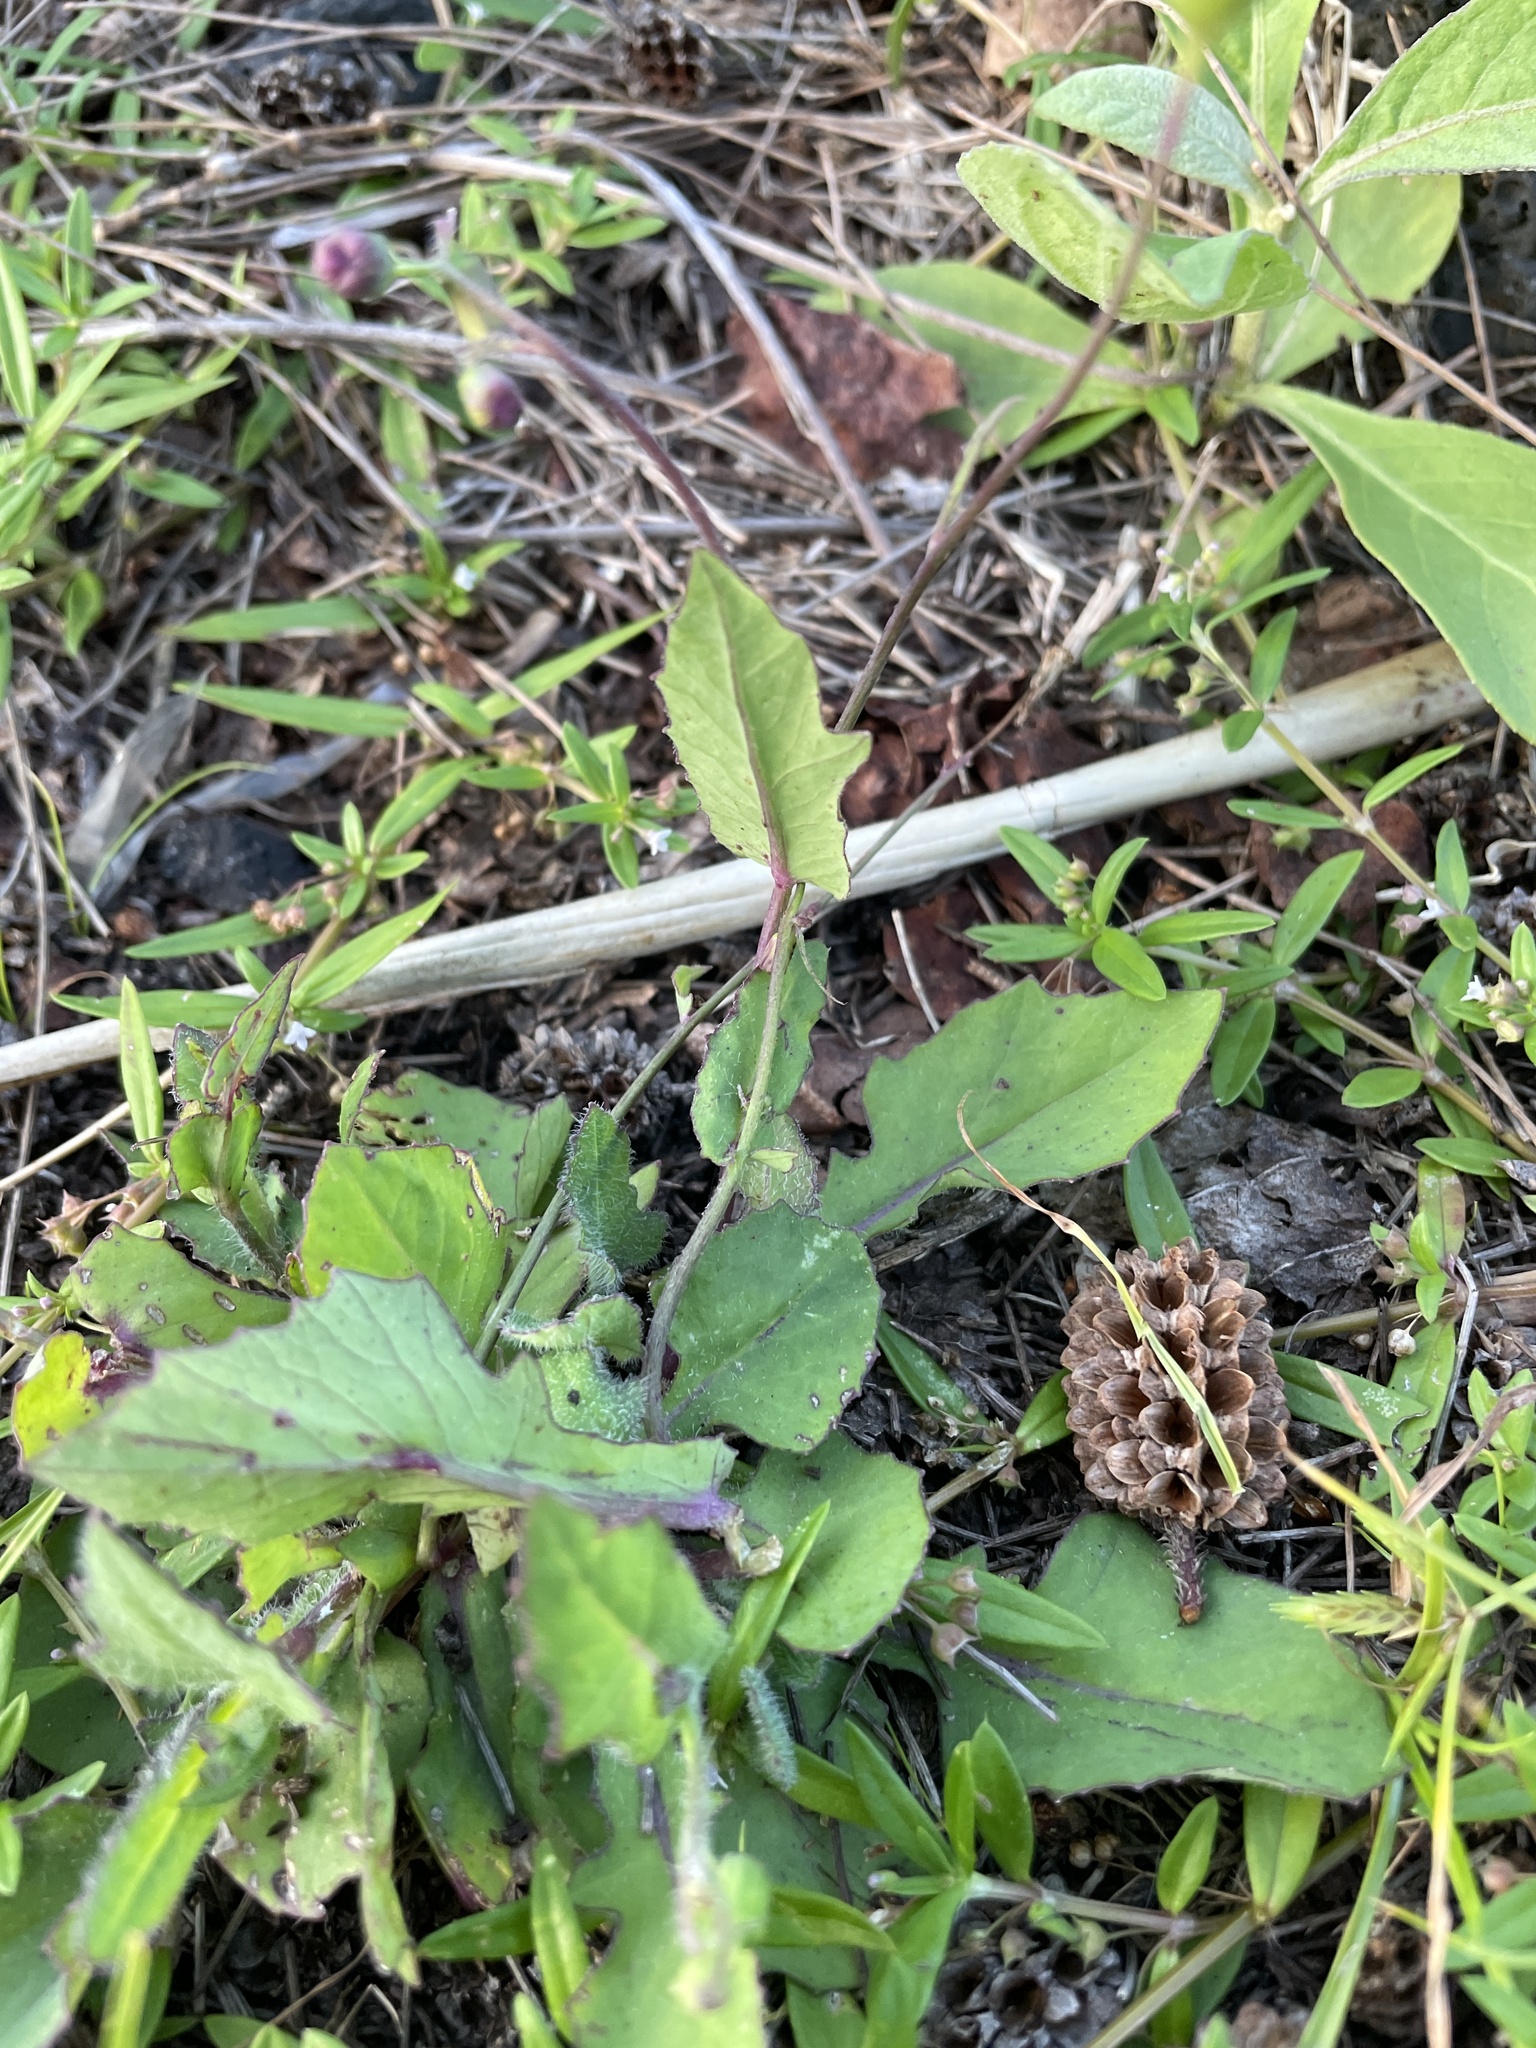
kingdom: Plantae
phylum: Tracheophyta
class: Magnoliopsida
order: Asterales
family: Asteraceae
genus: Emilia
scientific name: Emilia sonchifolia
